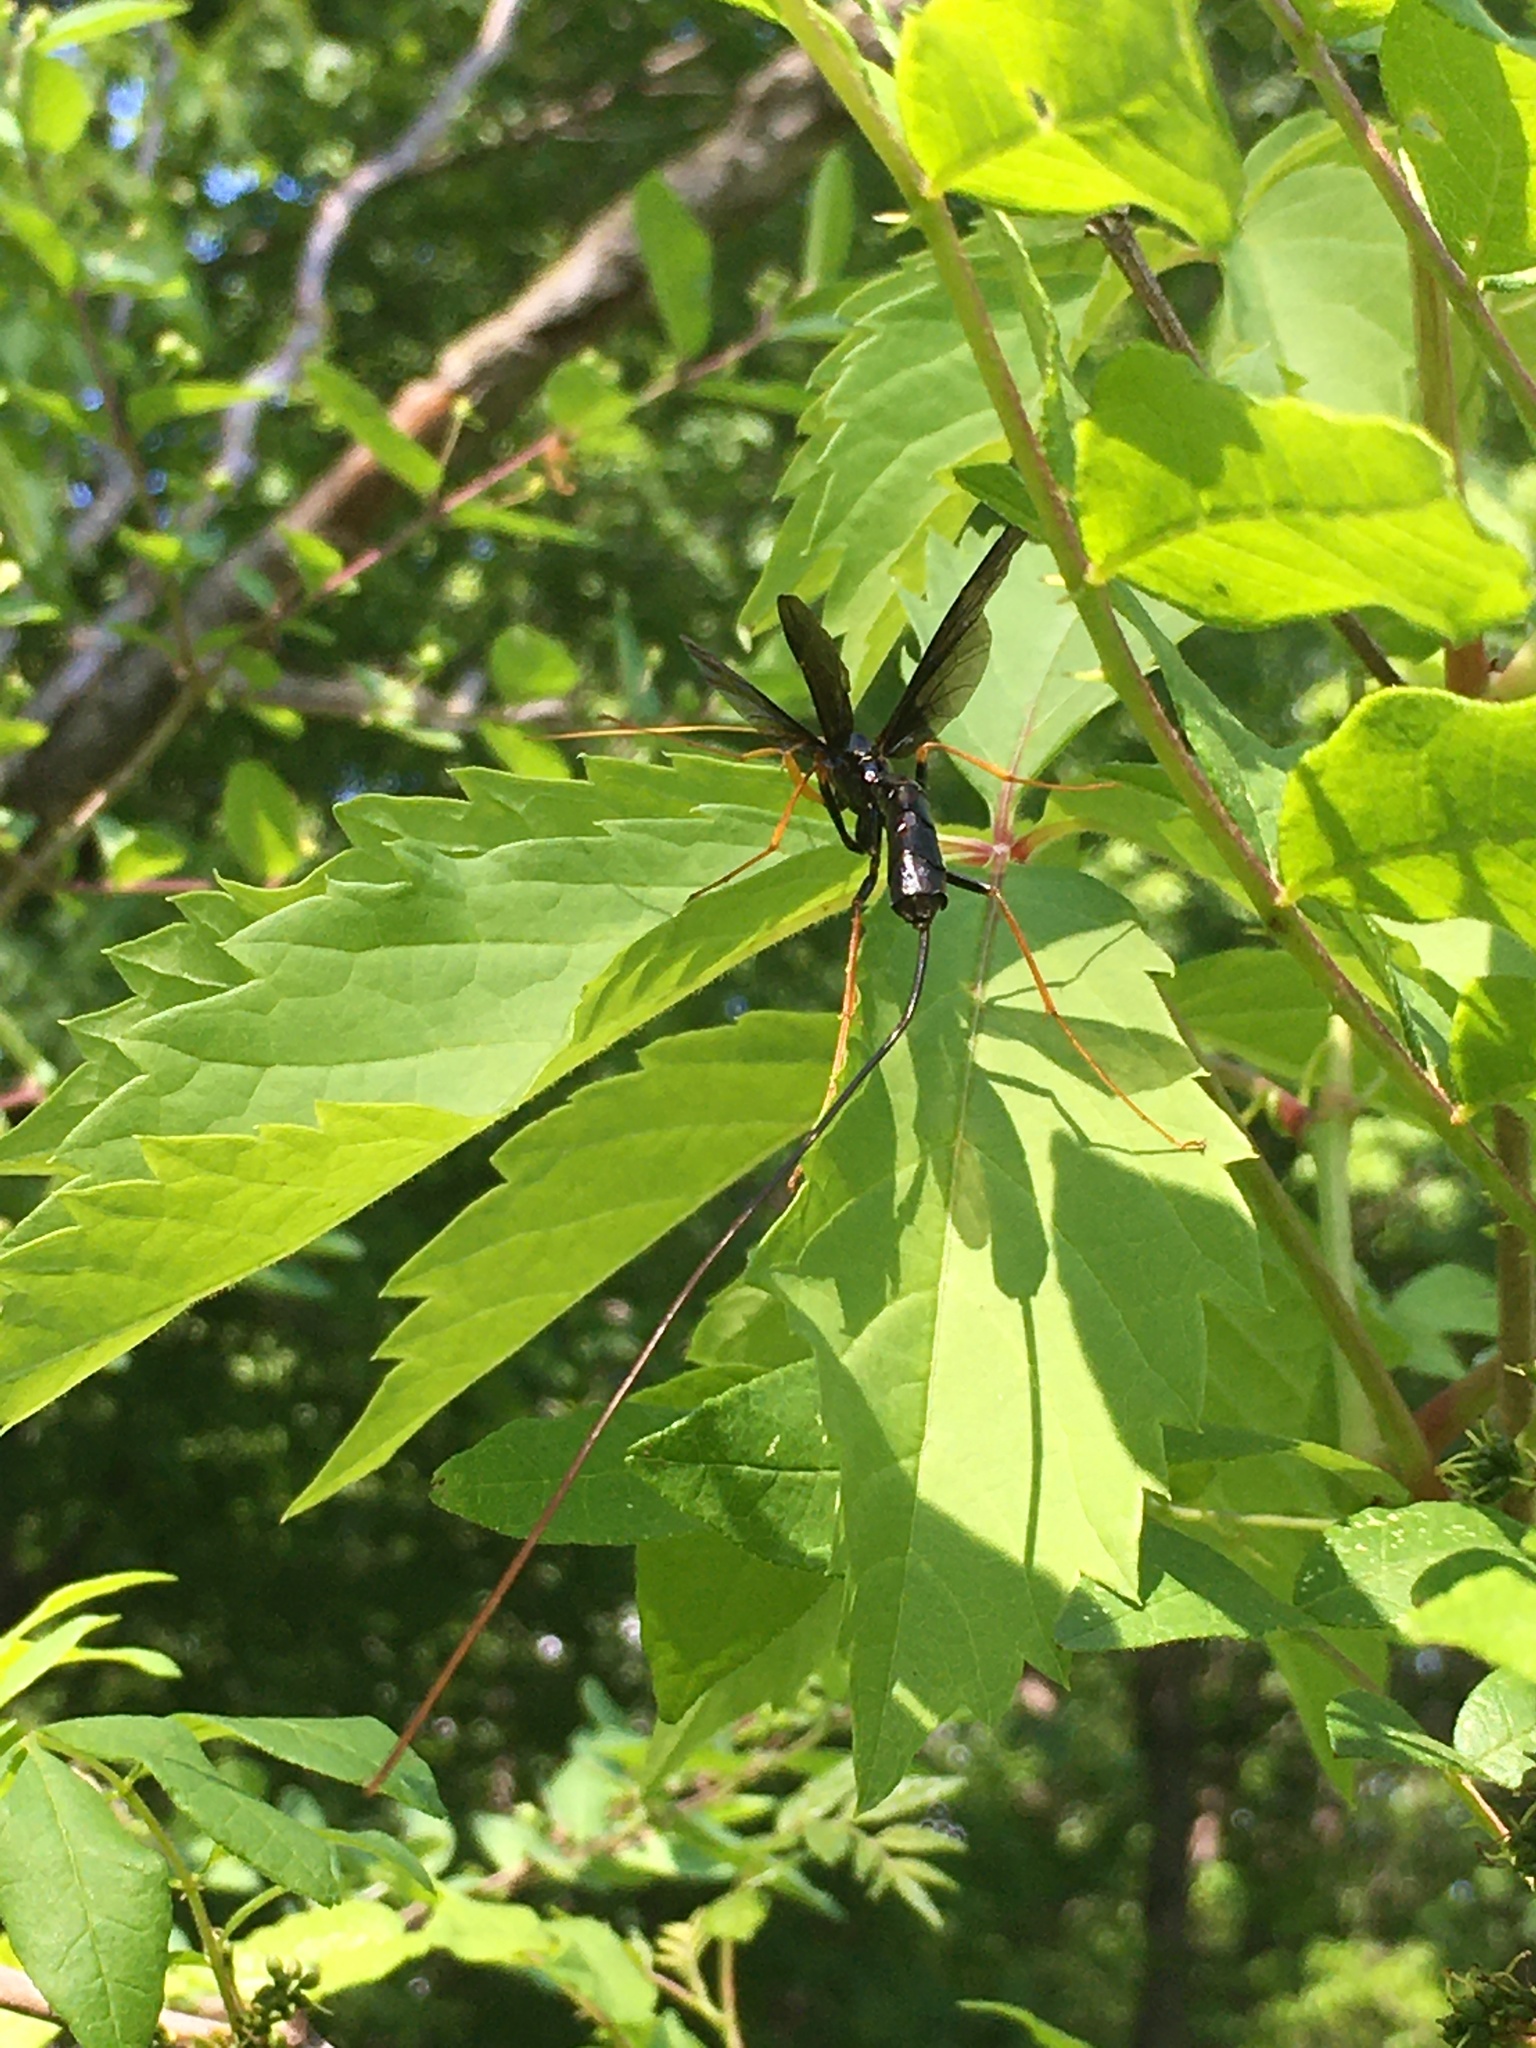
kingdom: Animalia
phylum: Arthropoda
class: Insecta
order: Hymenoptera
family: Ichneumonidae
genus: Megarhyssa
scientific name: Megarhyssa atrata
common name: Black giant ichneumonid wasp
